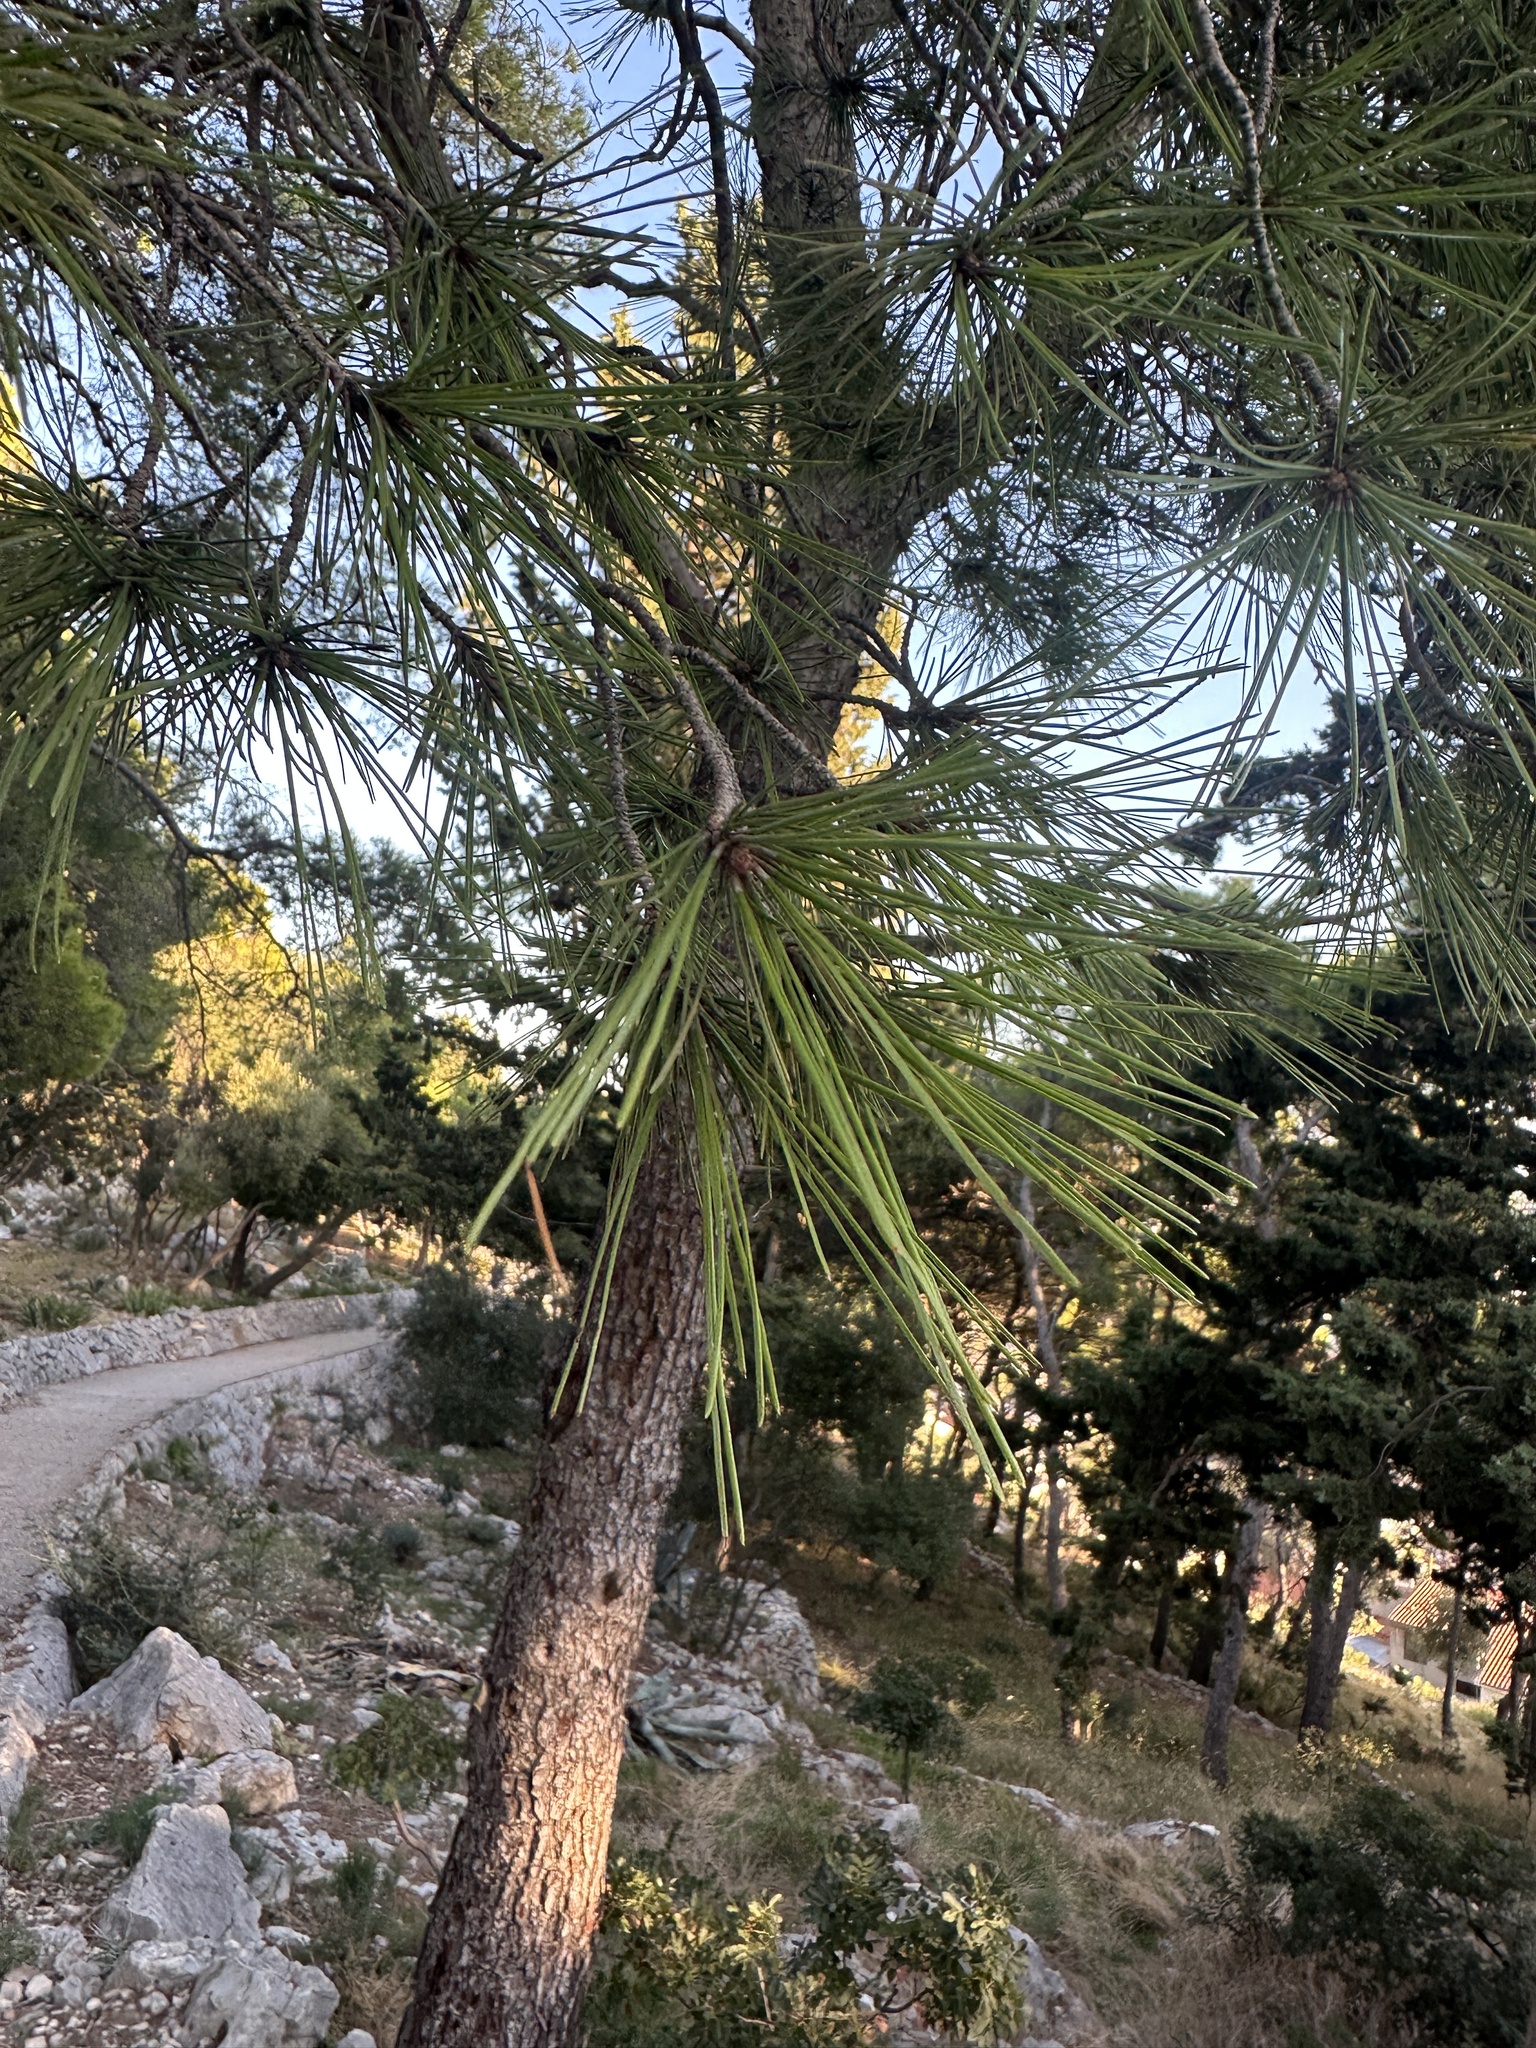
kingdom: Plantae
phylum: Tracheophyta
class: Pinopsida
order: Pinales
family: Pinaceae
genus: Pinus
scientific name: Pinus halepensis
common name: Aleppo pine
